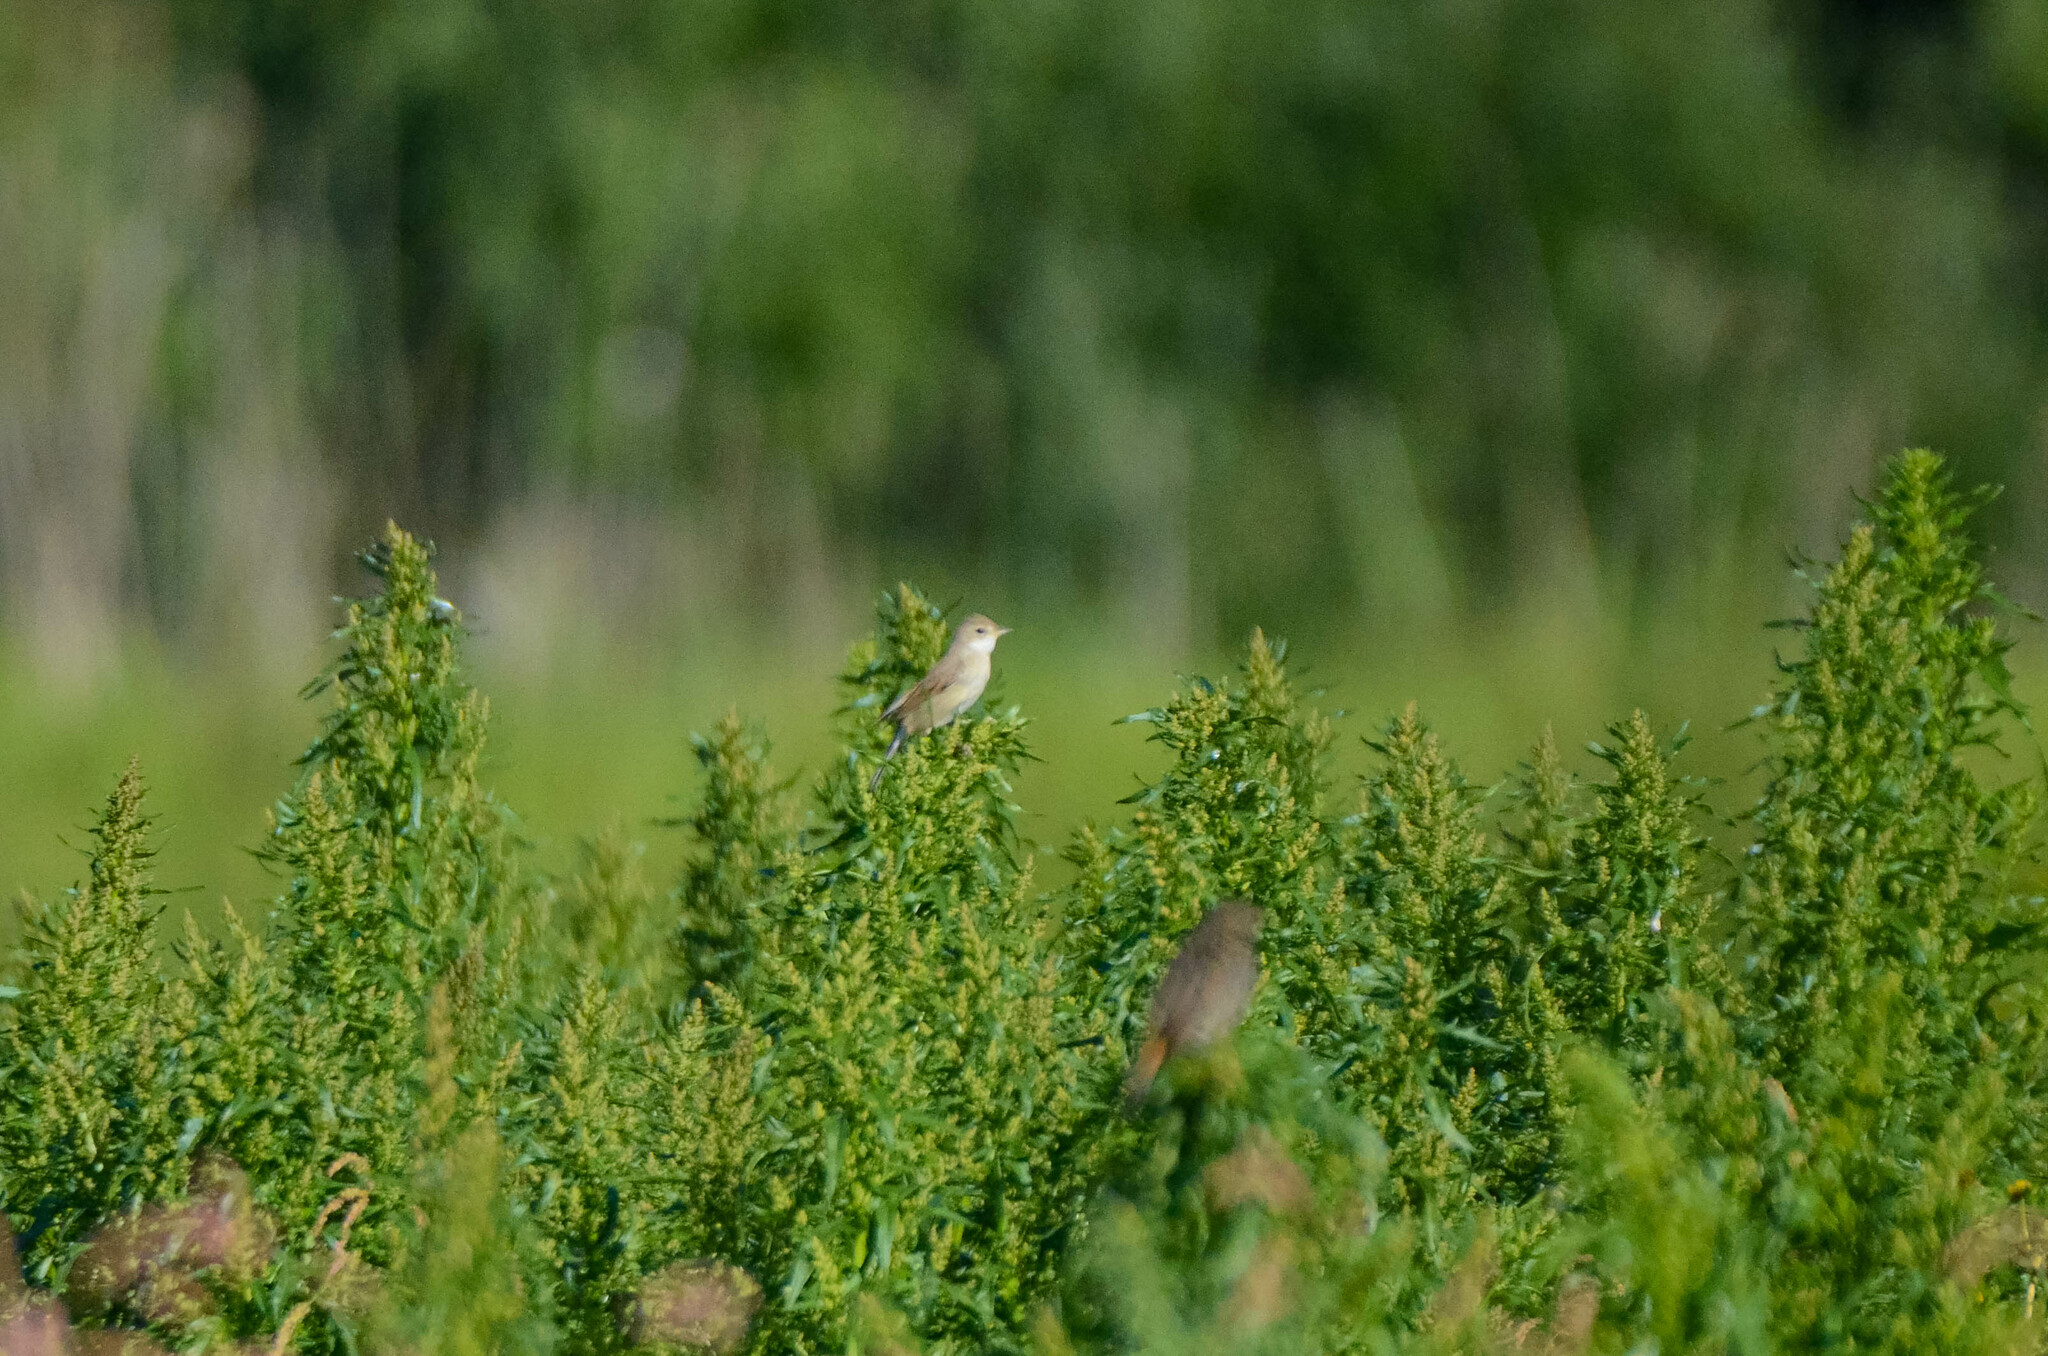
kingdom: Animalia
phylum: Chordata
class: Aves
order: Passeriformes
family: Sylviidae
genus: Sylvia
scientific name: Sylvia communis
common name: Common whitethroat
